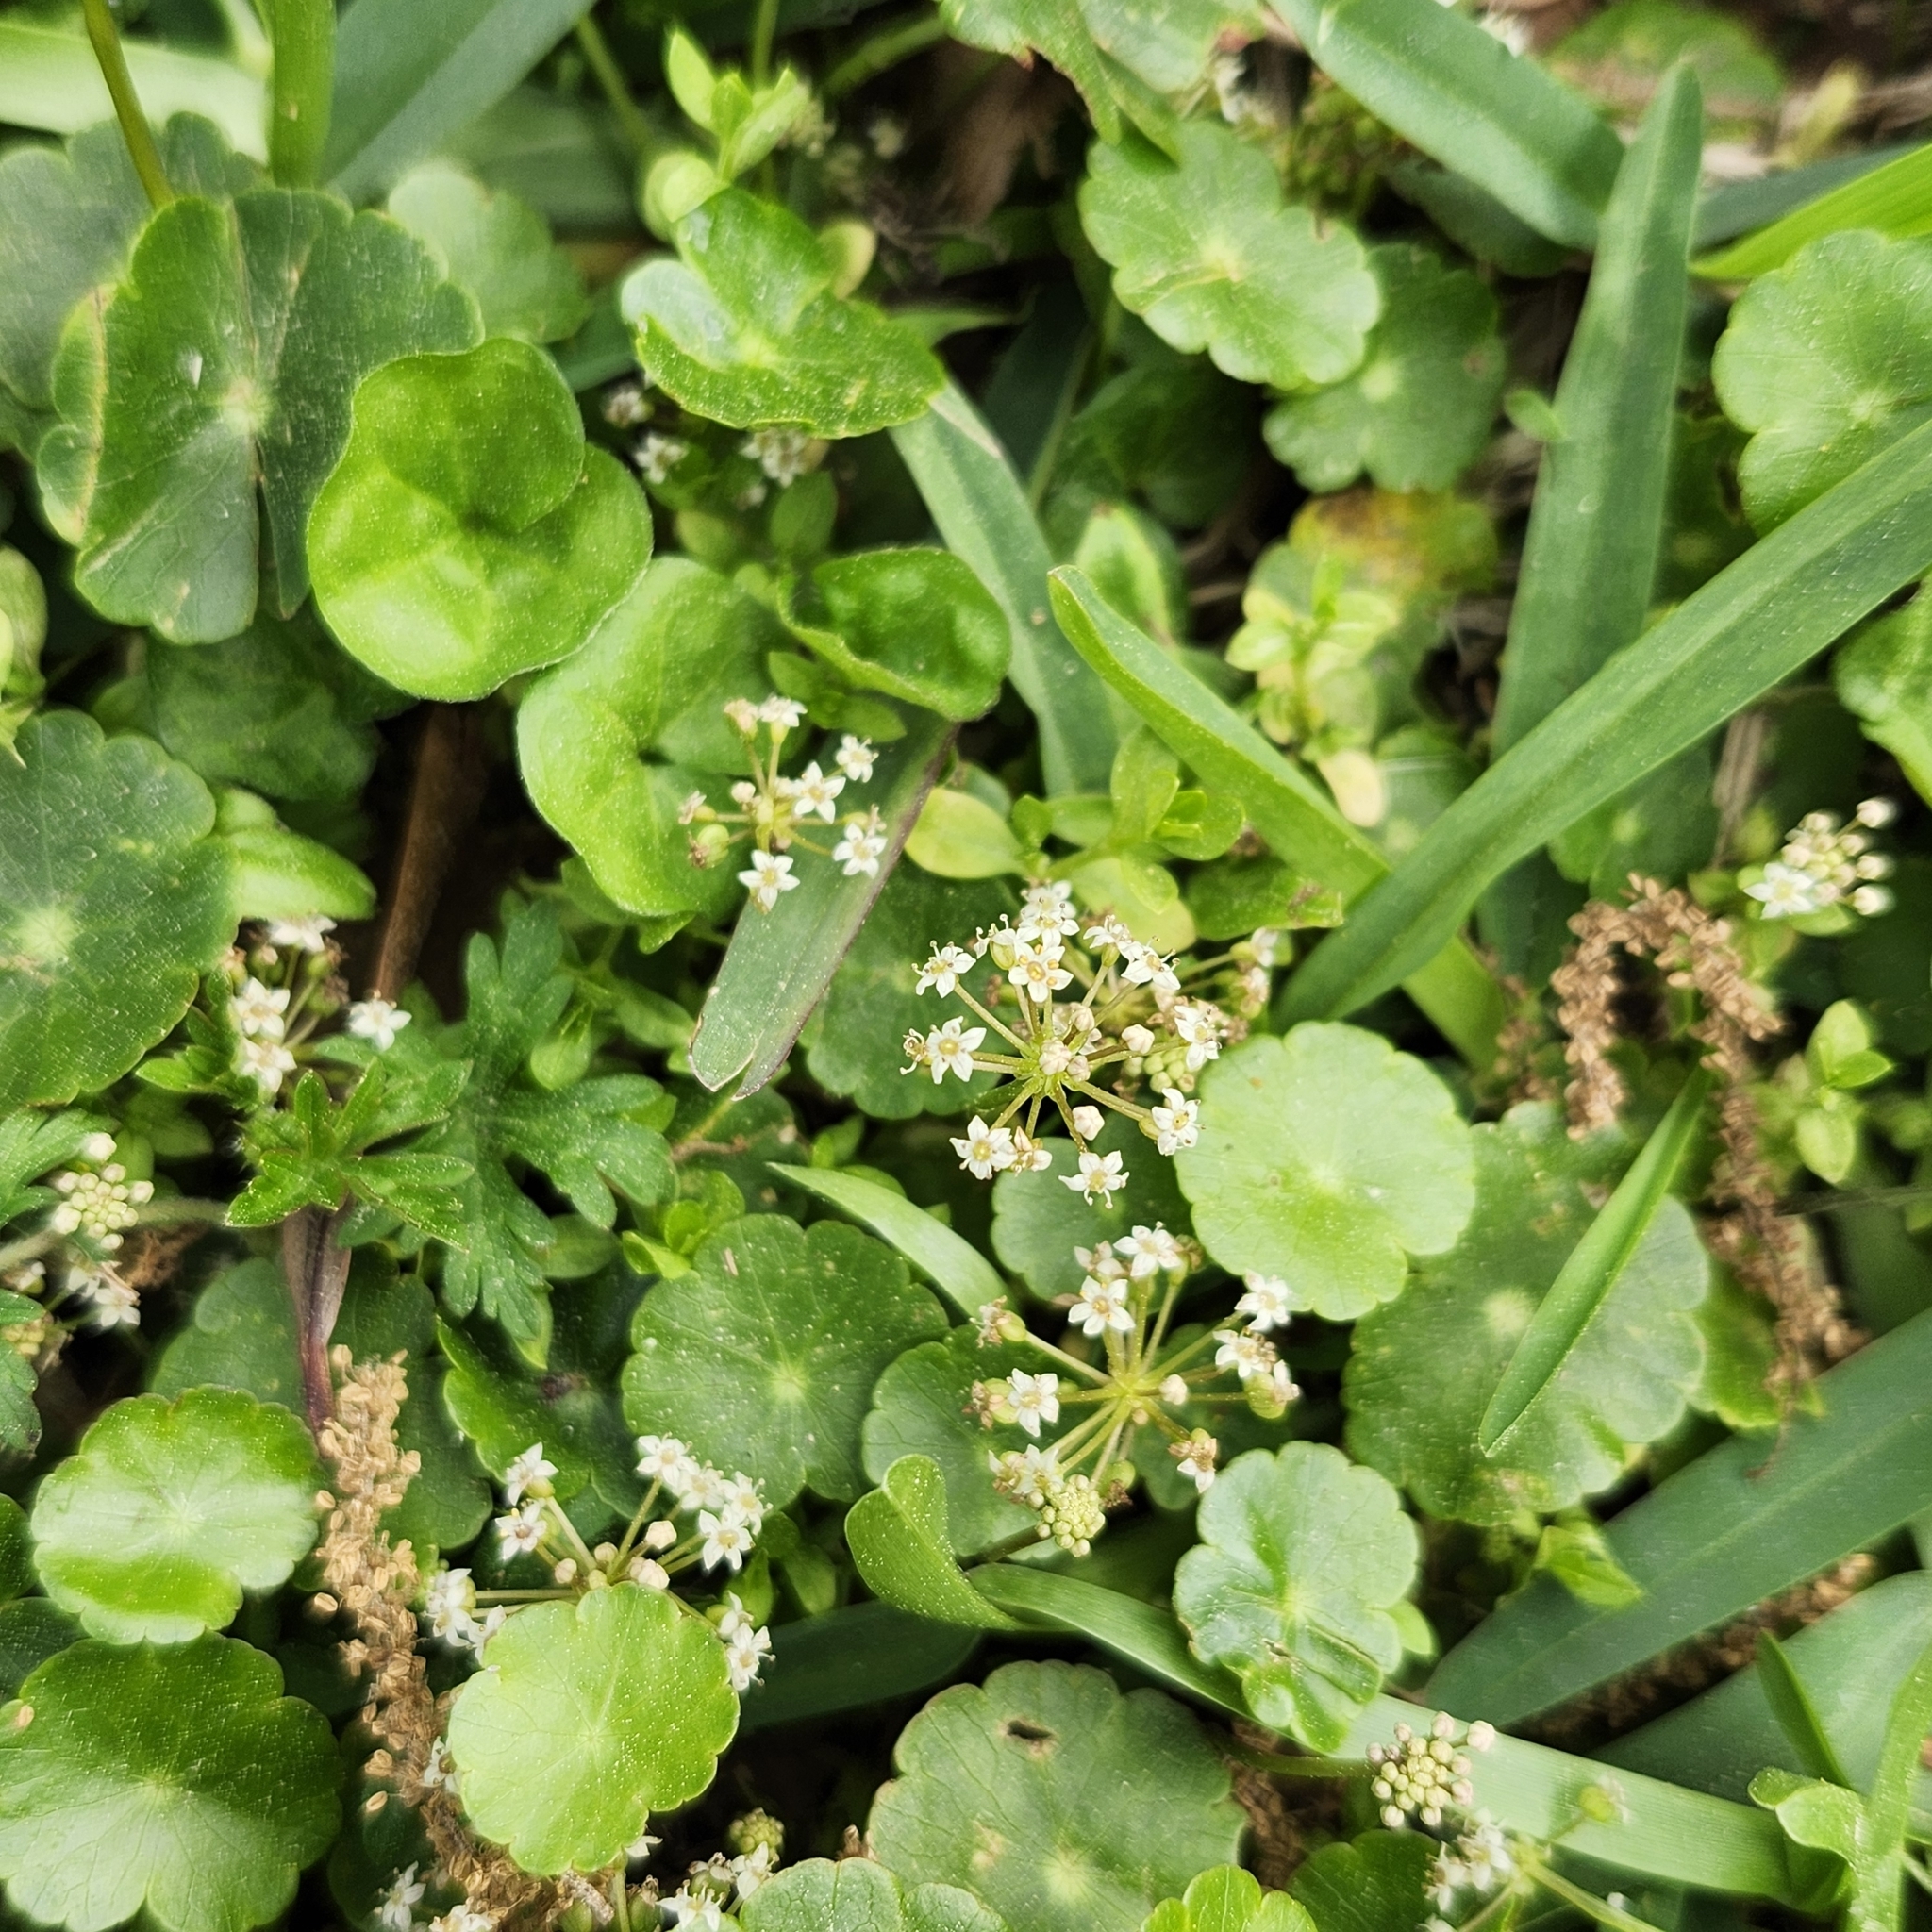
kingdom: Plantae
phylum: Tracheophyta
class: Magnoliopsida
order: Apiales
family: Araliaceae
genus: Hydrocotyle
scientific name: Hydrocotyle umbellata
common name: Water pennywort
